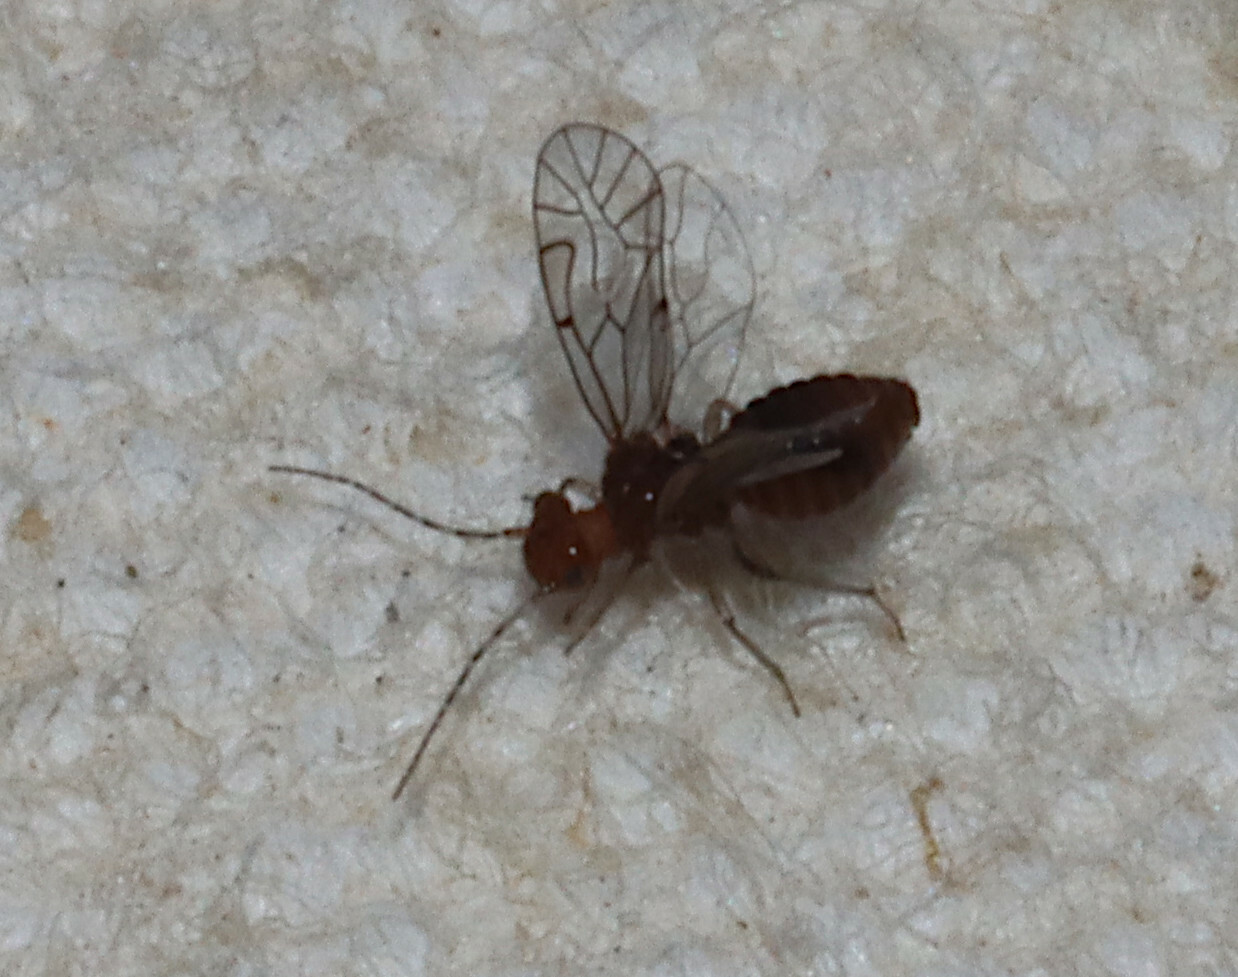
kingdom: Animalia
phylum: Arthropoda
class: Insecta
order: Psocodea
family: Lachesillidae
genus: Anomopsocus
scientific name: Anomopsocus amabilis
